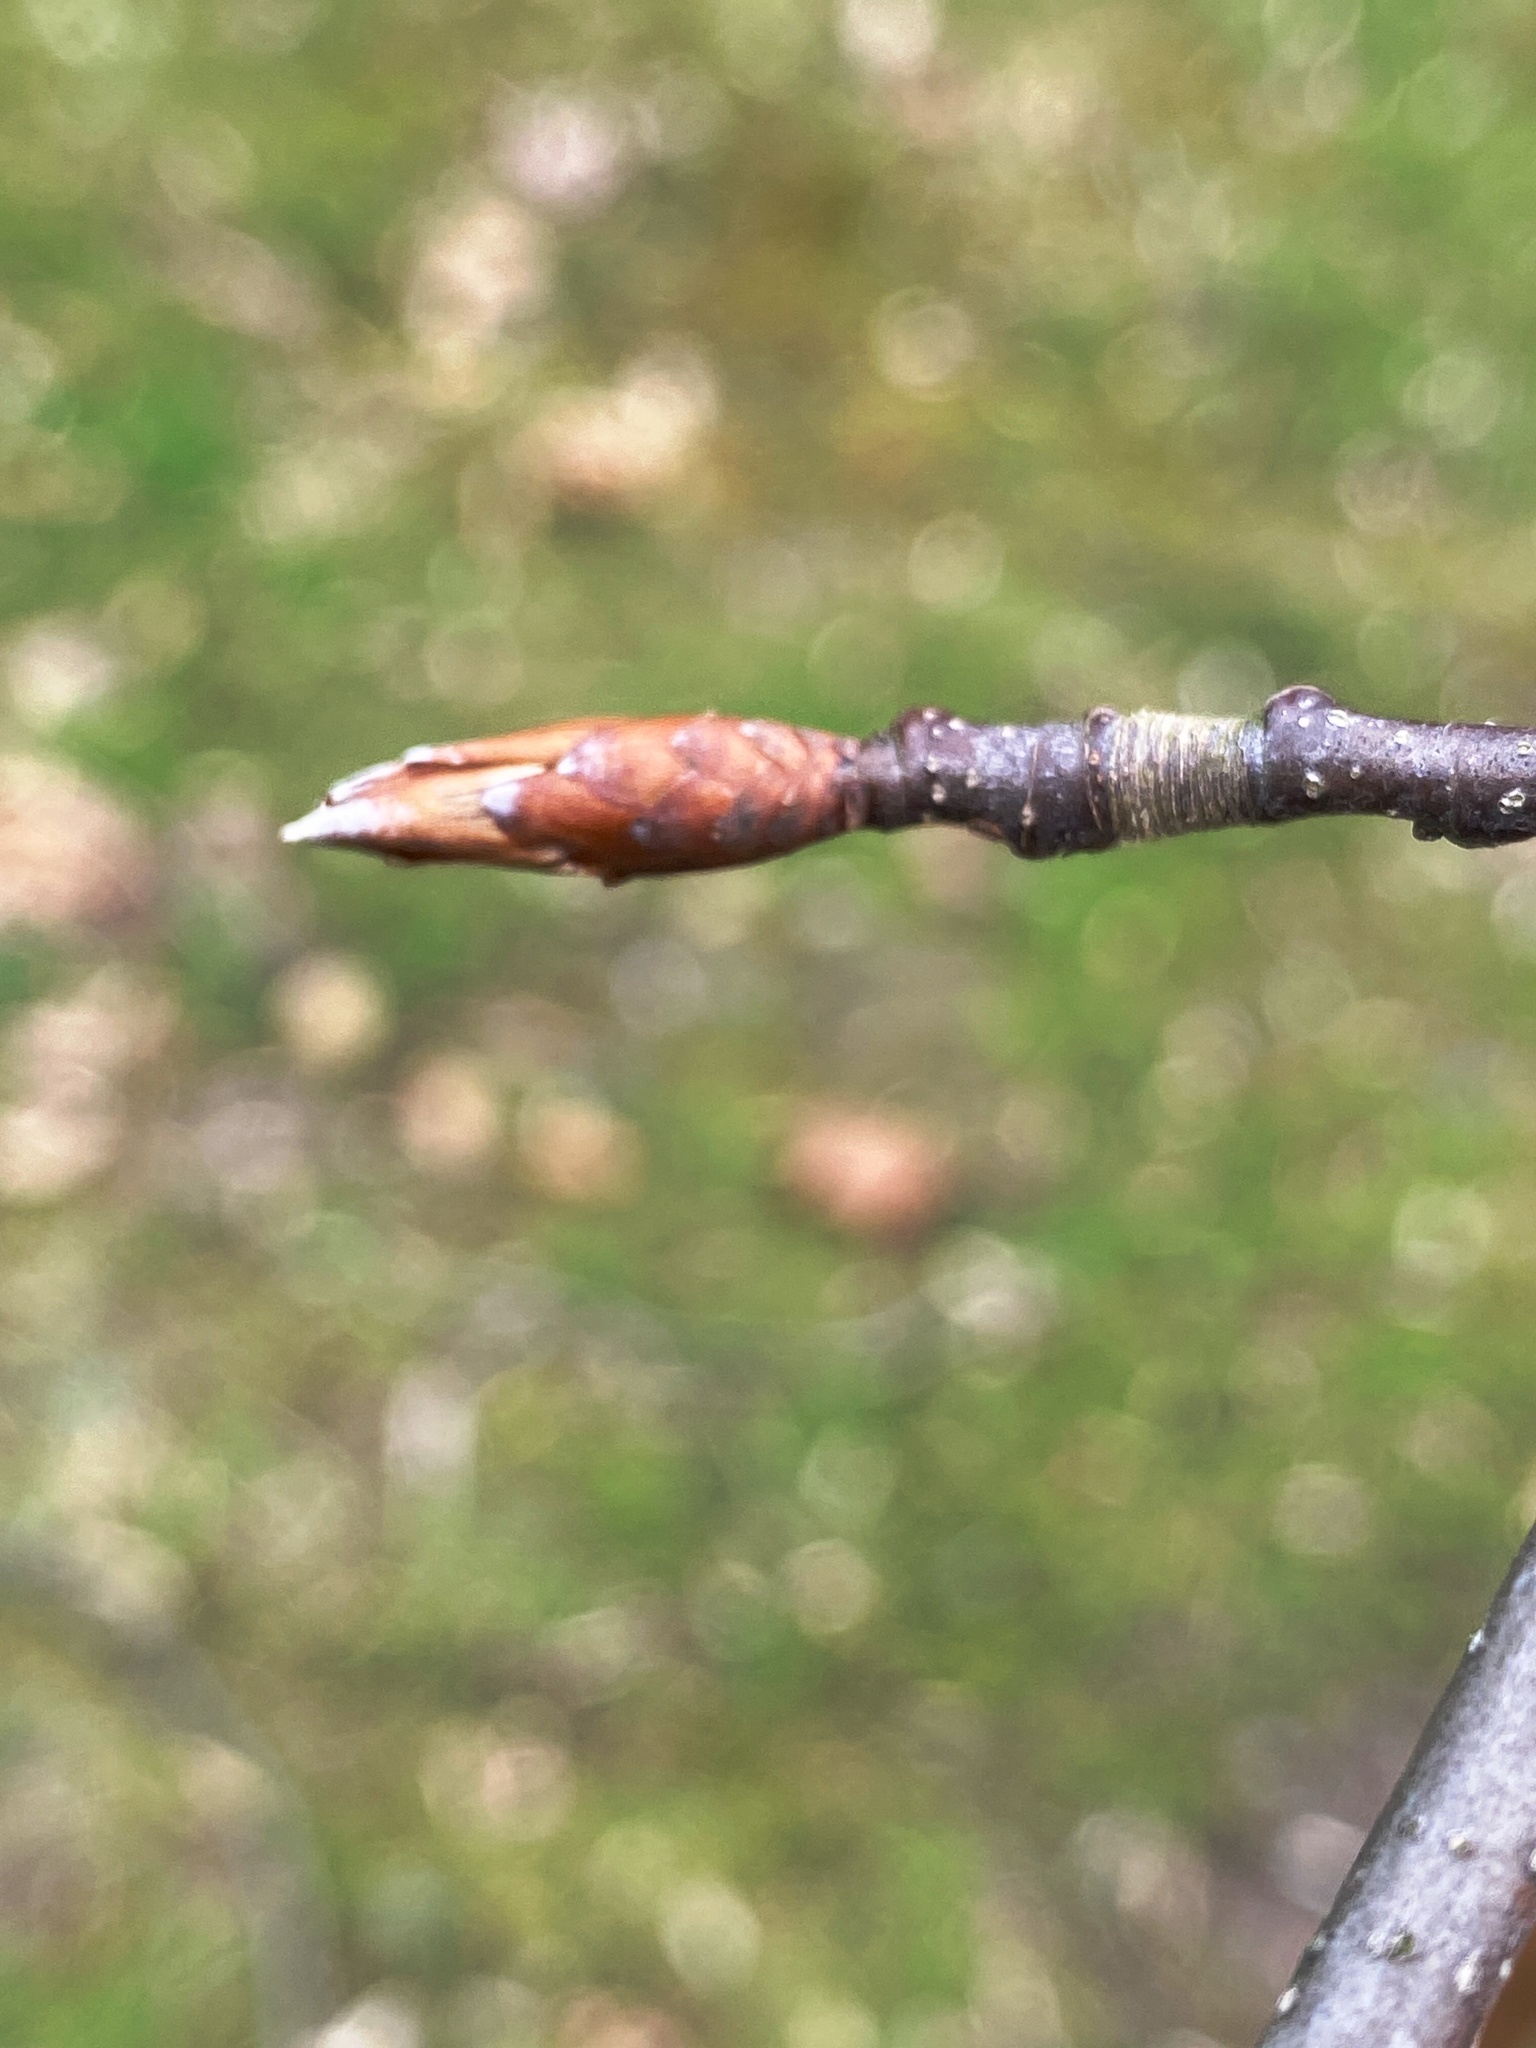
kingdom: Plantae
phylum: Tracheophyta
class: Magnoliopsida
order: Fagales
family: Fagaceae
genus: Fagus
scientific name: Fagus grandifolia
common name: American beech
